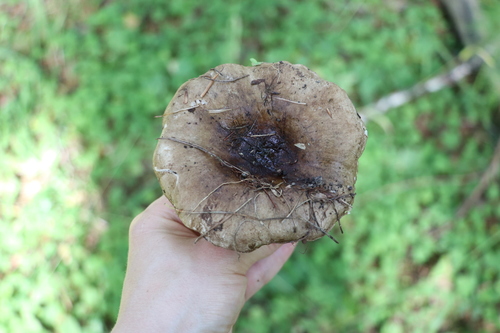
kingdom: Fungi
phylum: Basidiomycota
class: Agaricomycetes
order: Russulales
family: Russulaceae
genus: Russula
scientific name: Russula adusta
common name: Winecork brittlegill
